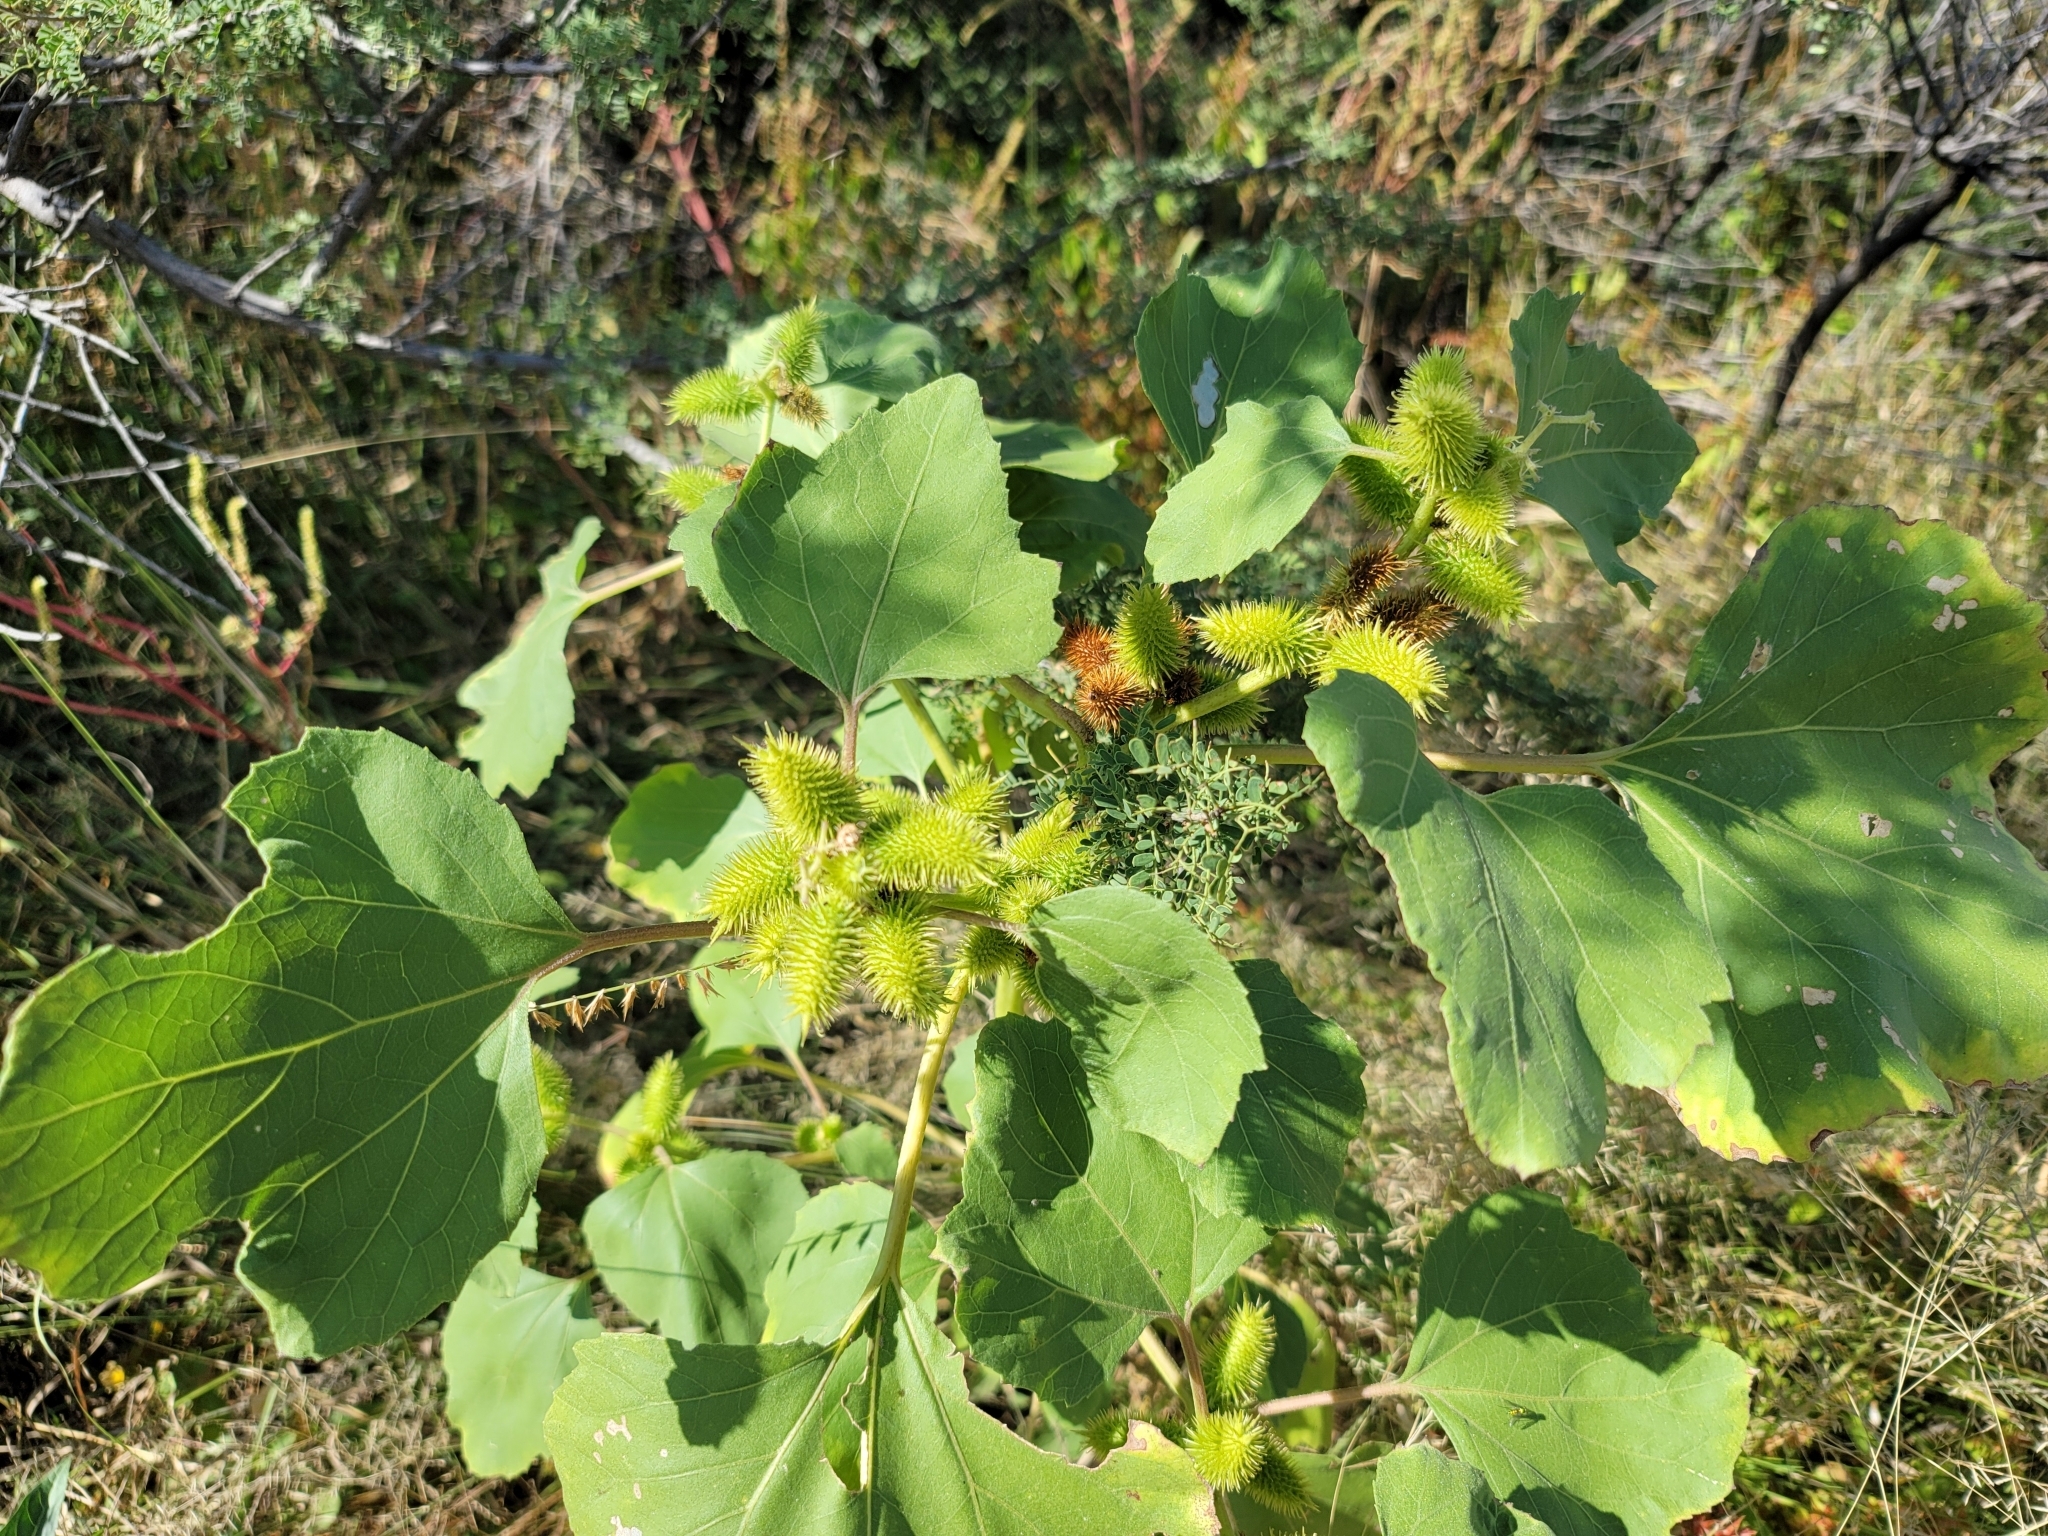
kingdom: Plantae
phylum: Tracheophyta
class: Magnoliopsida
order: Asterales
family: Asteraceae
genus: Xanthium
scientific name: Xanthium strumarium
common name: Rough cocklebur
